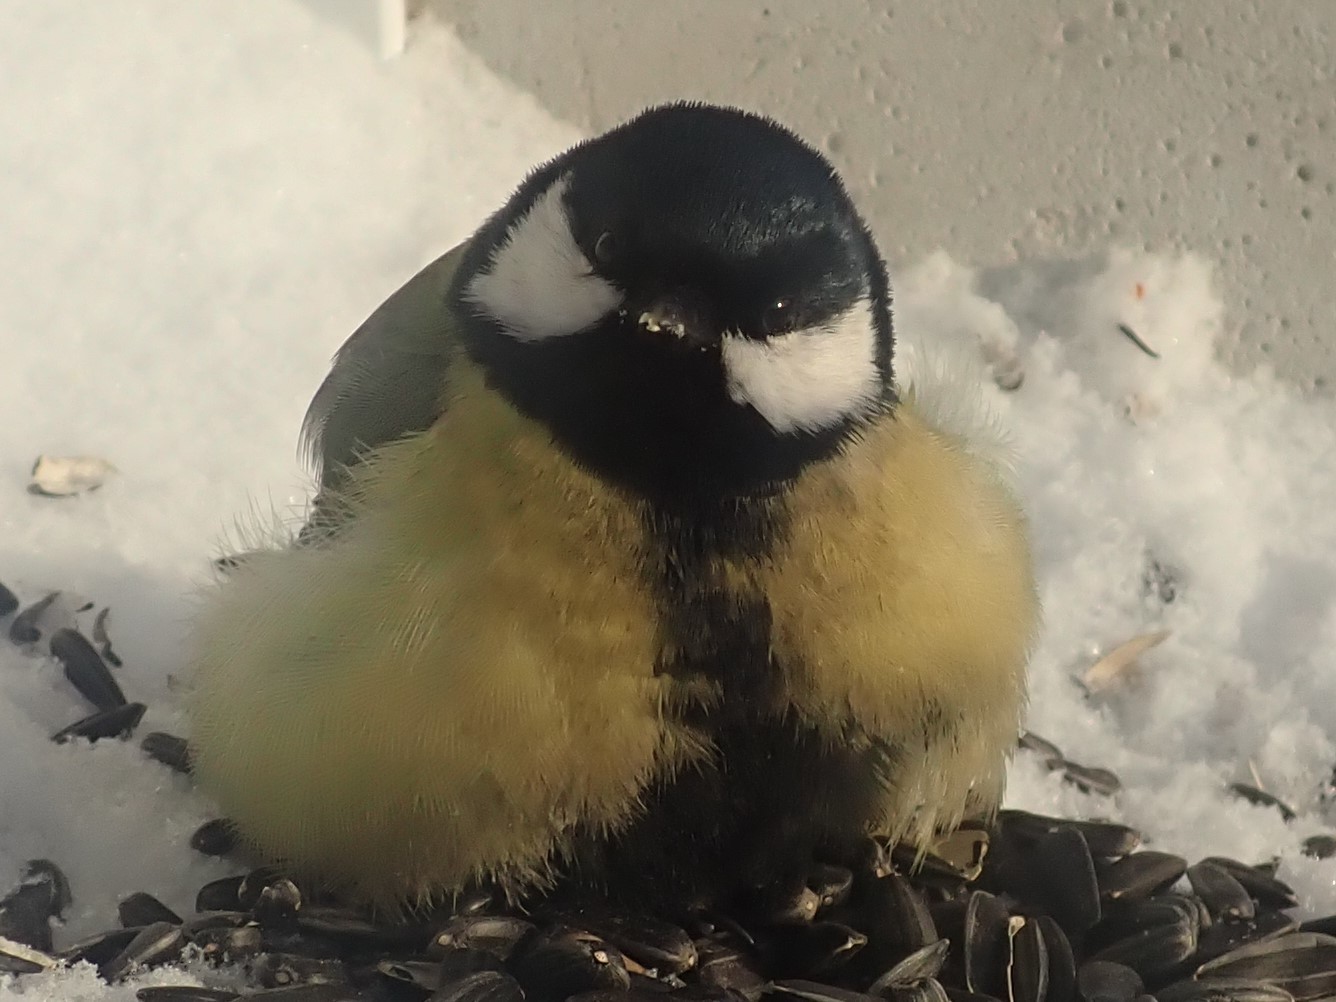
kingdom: Animalia
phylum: Chordata
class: Aves
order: Passeriformes
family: Paridae
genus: Parus
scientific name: Parus major
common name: Great tit
